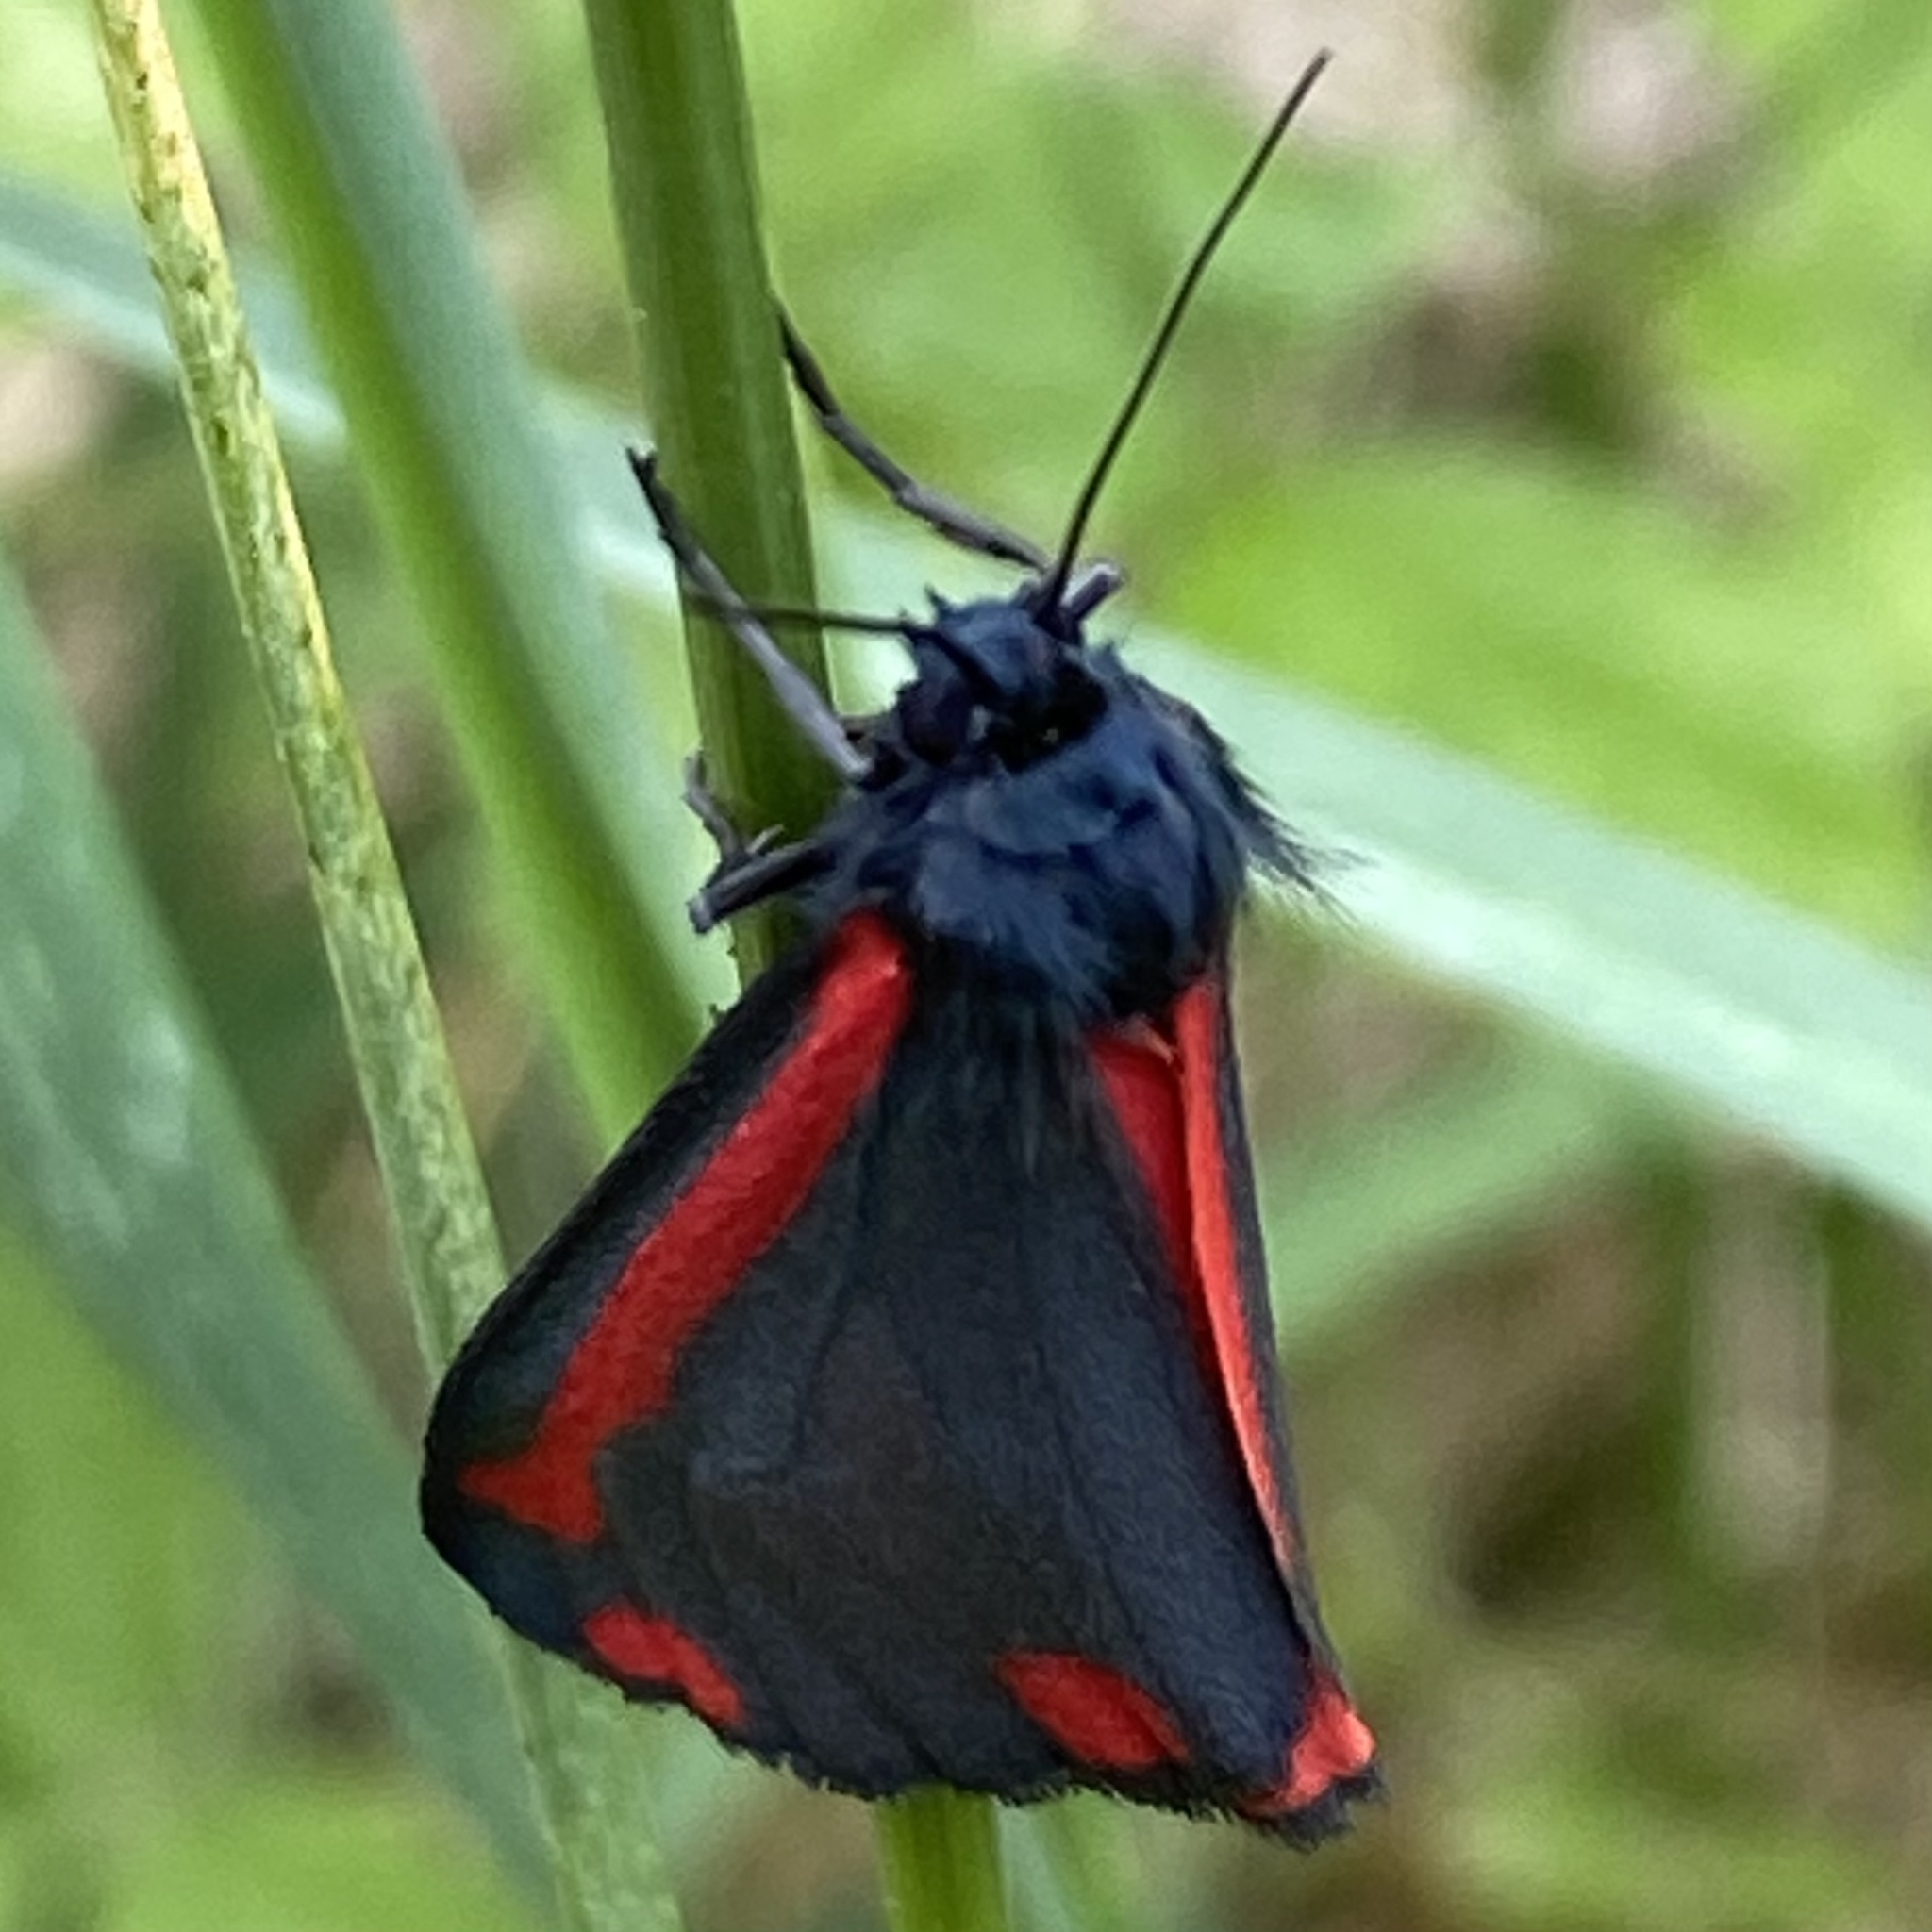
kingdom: Animalia
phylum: Arthropoda
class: Insecta
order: Lepidoptera
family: Erebidae
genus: Tyria
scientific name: Tyria jacobaeae
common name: Cinnabar
